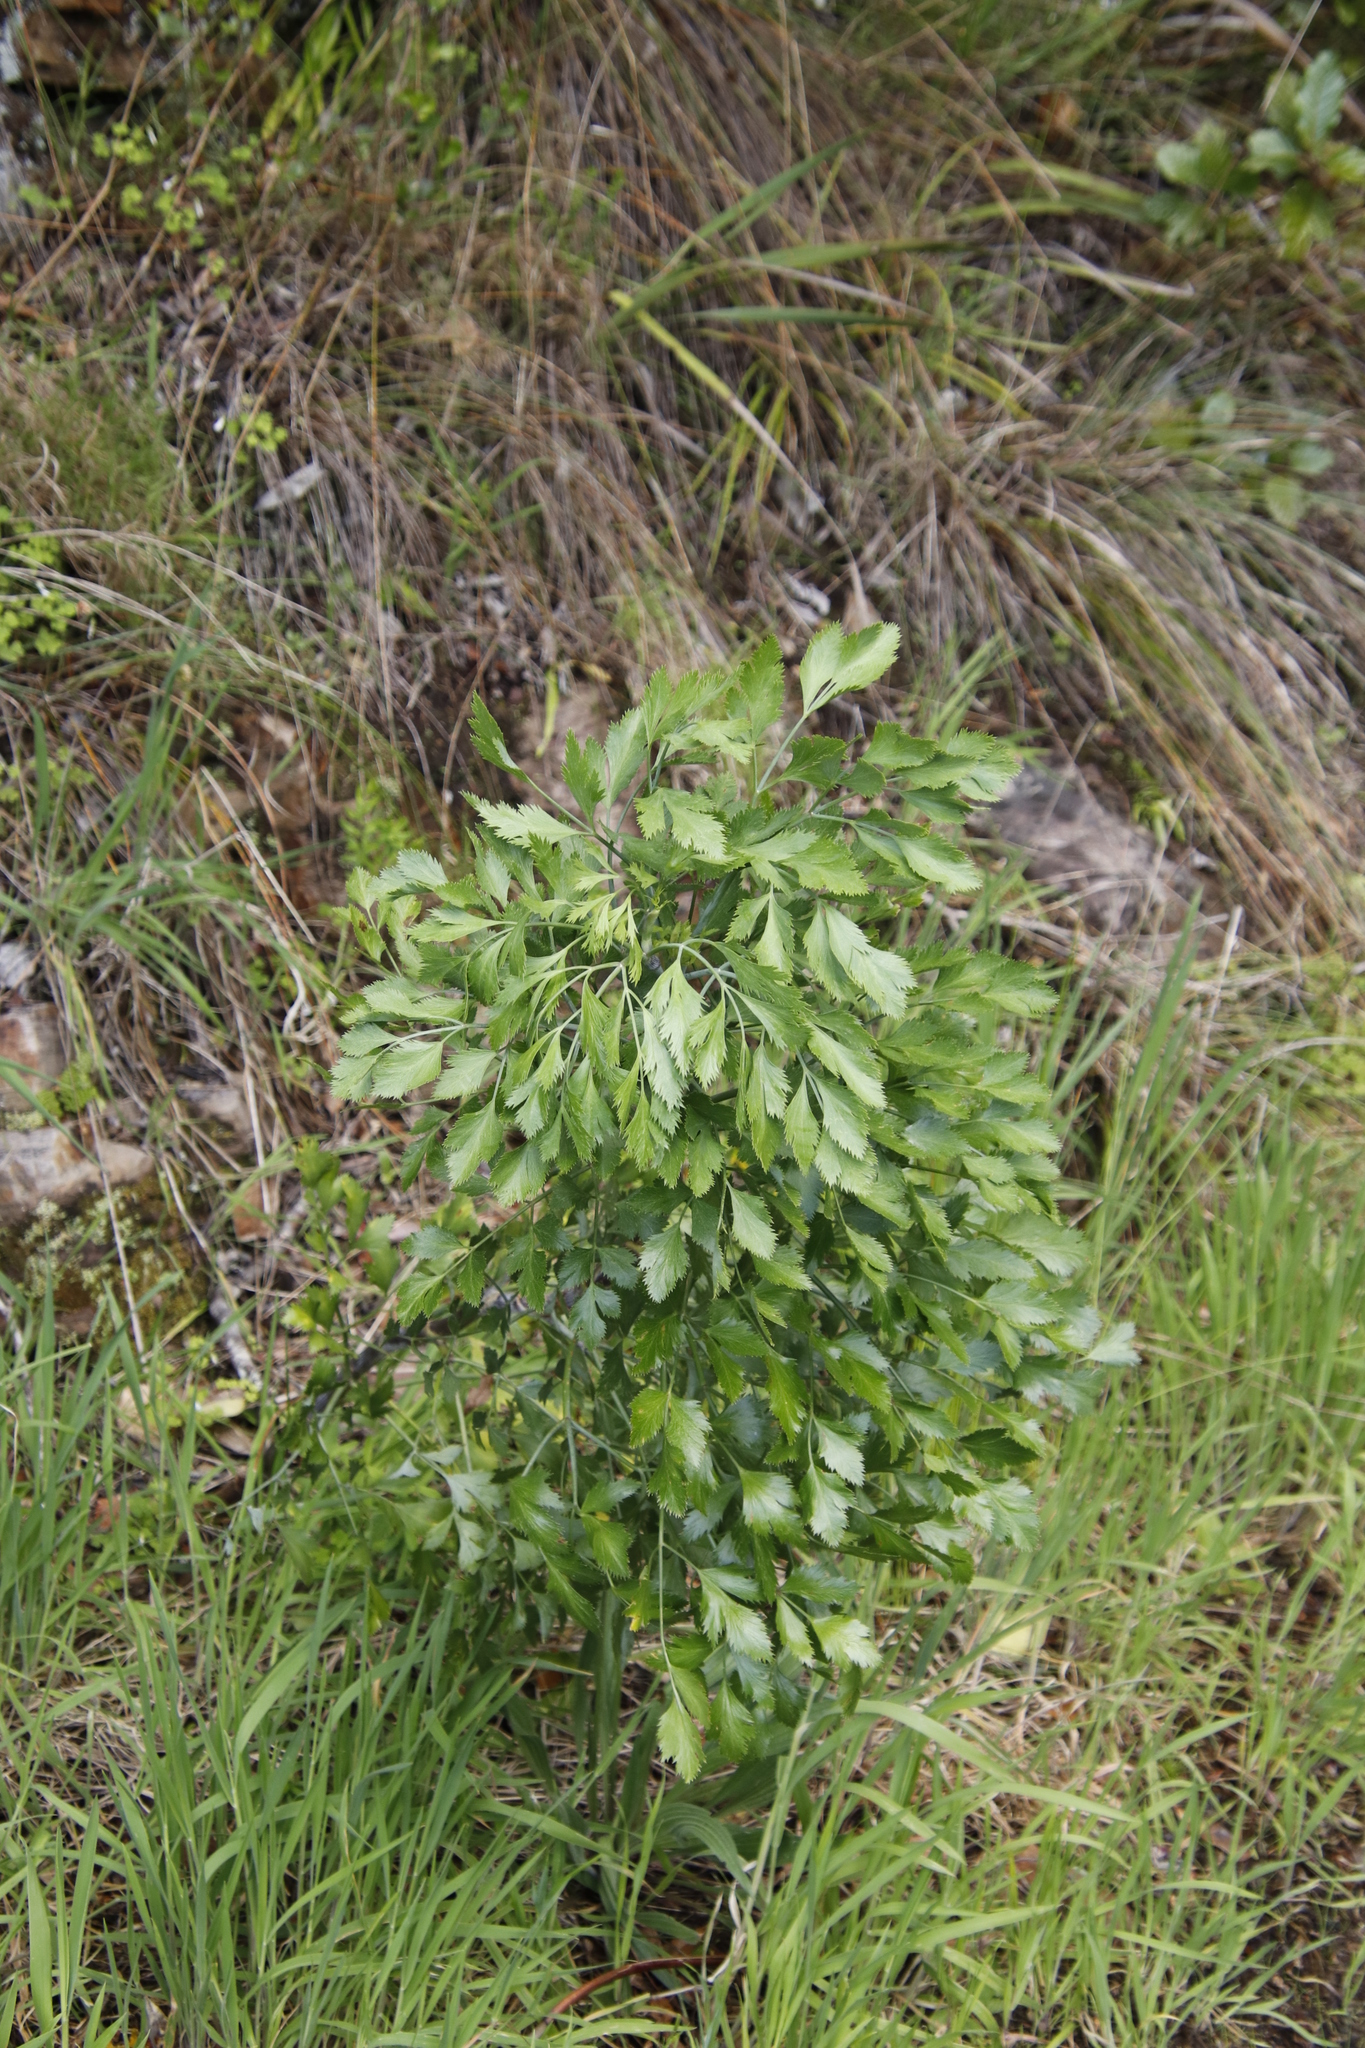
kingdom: Plantae
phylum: Tracheophyta
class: Magnoliopsida
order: Apiales
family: Apiaceae
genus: Notobubon
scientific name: Notobubon galbanum
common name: Blisterbush
